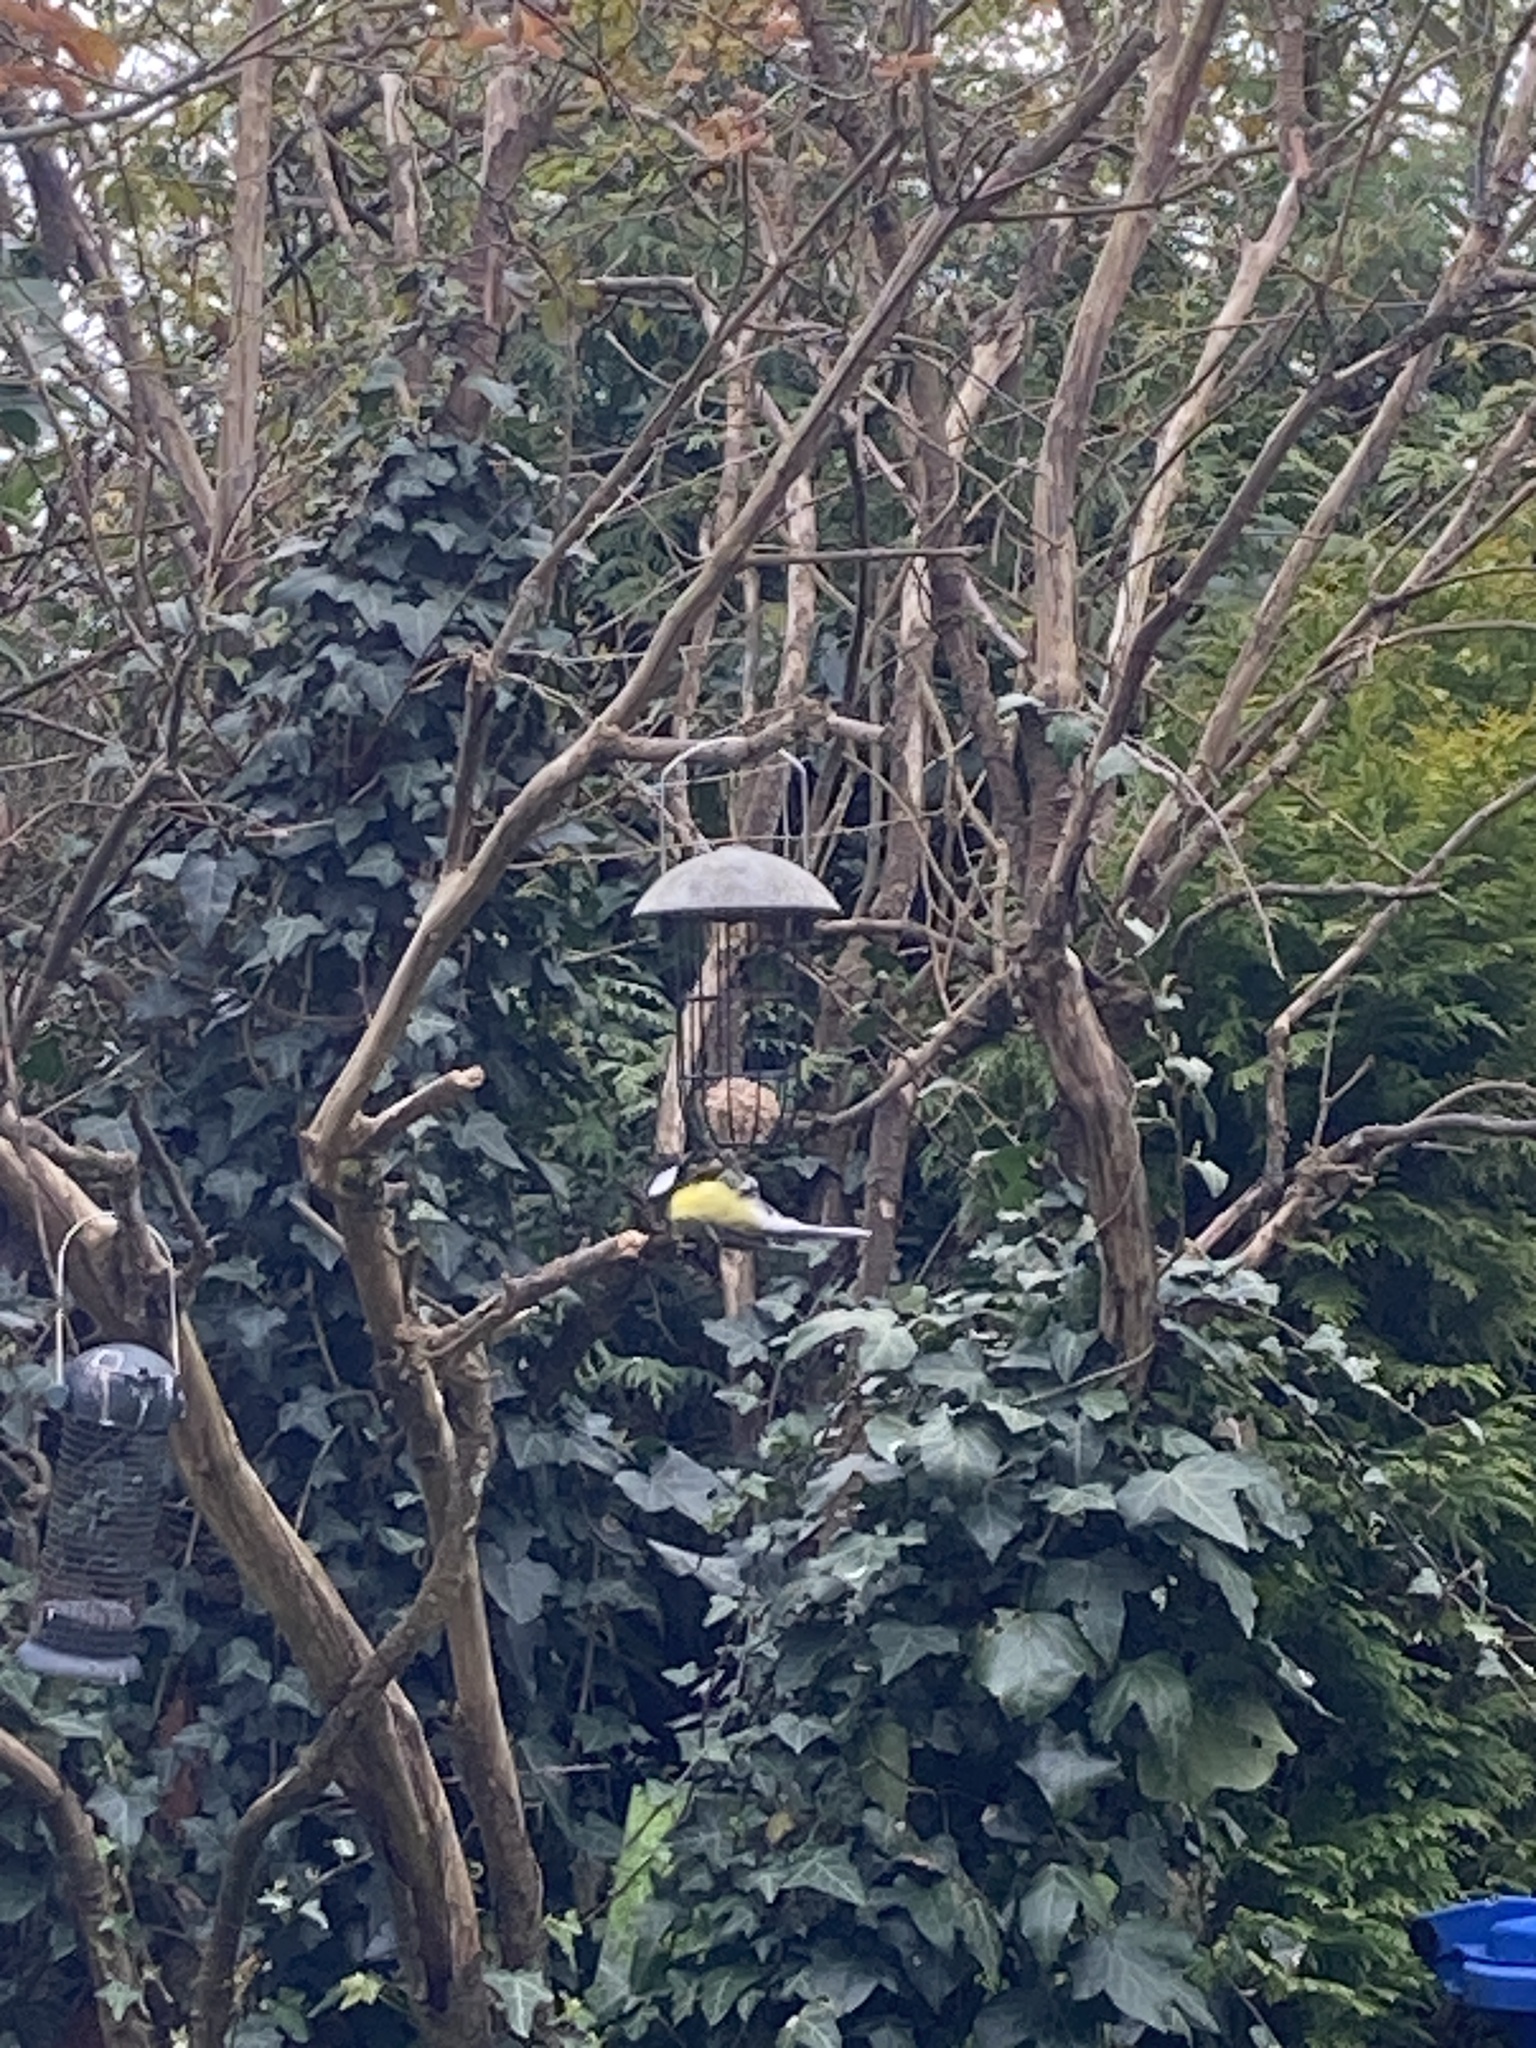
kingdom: Animalia
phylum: Chordata
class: Aves
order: Passeriformes
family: Paridae
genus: Parus
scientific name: Parus major
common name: Great tit
